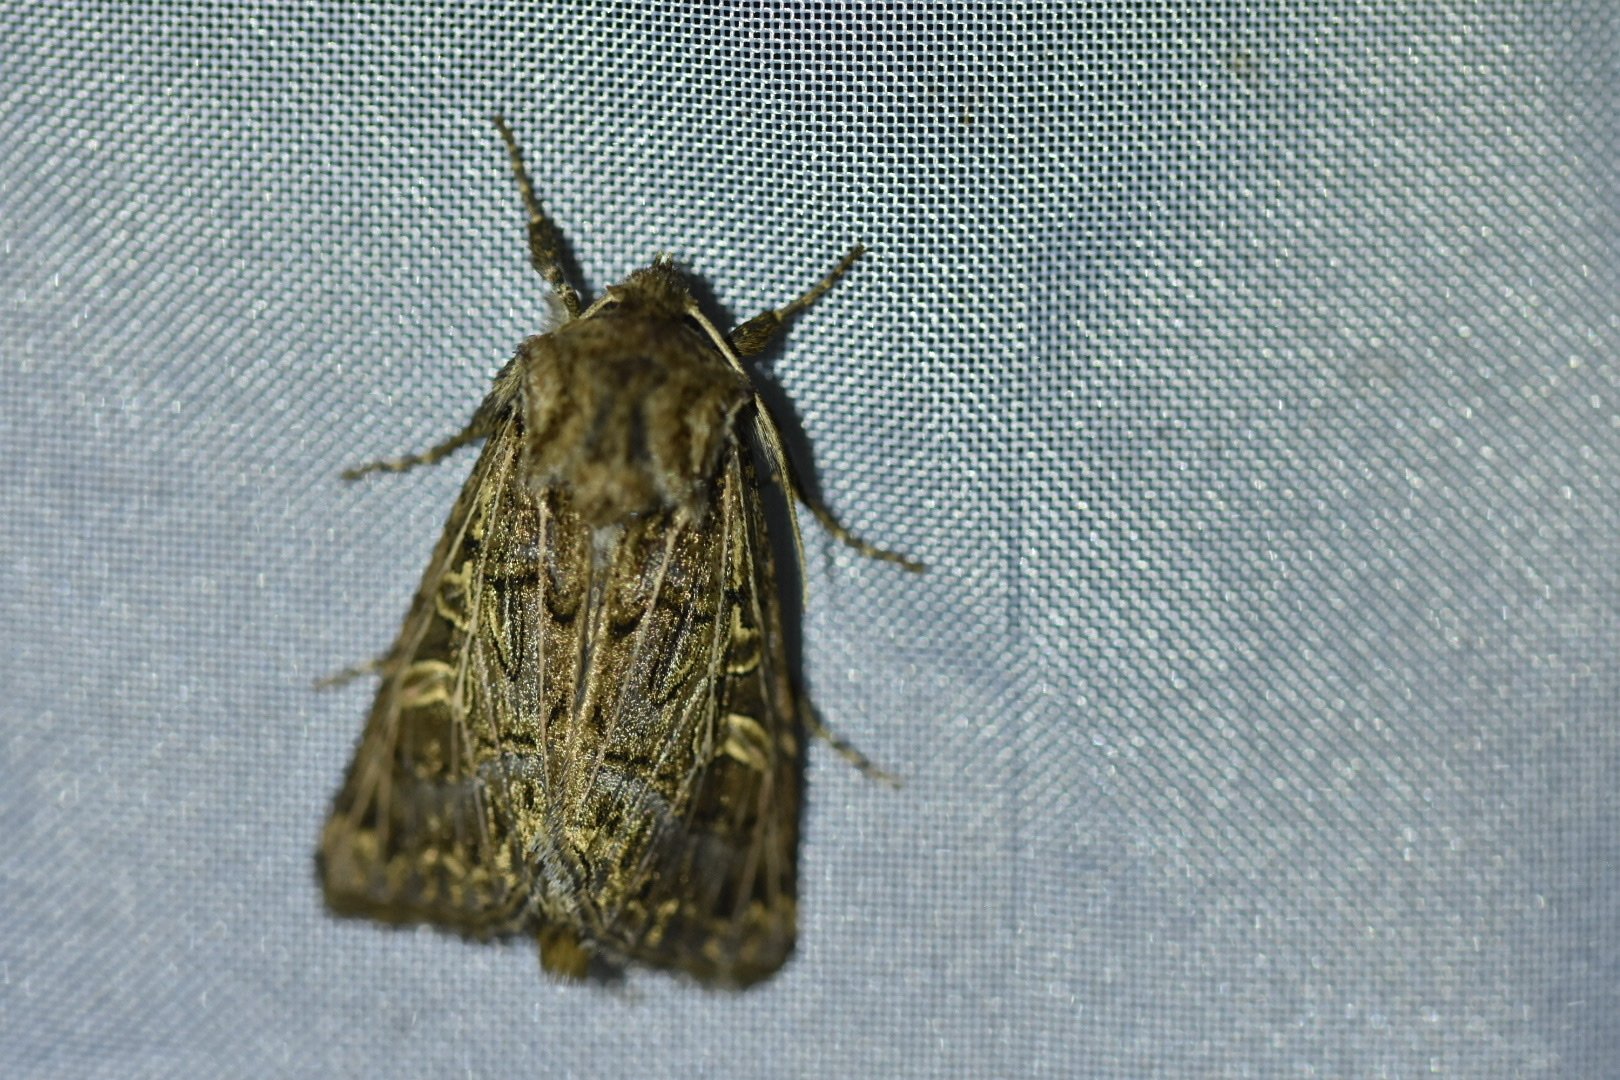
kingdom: Animalia
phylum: Arthropoda
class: Insecta
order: Lepidoptera
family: Noctuidae
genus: Tholera
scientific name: Tholera decimalis
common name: Feathered gothic
